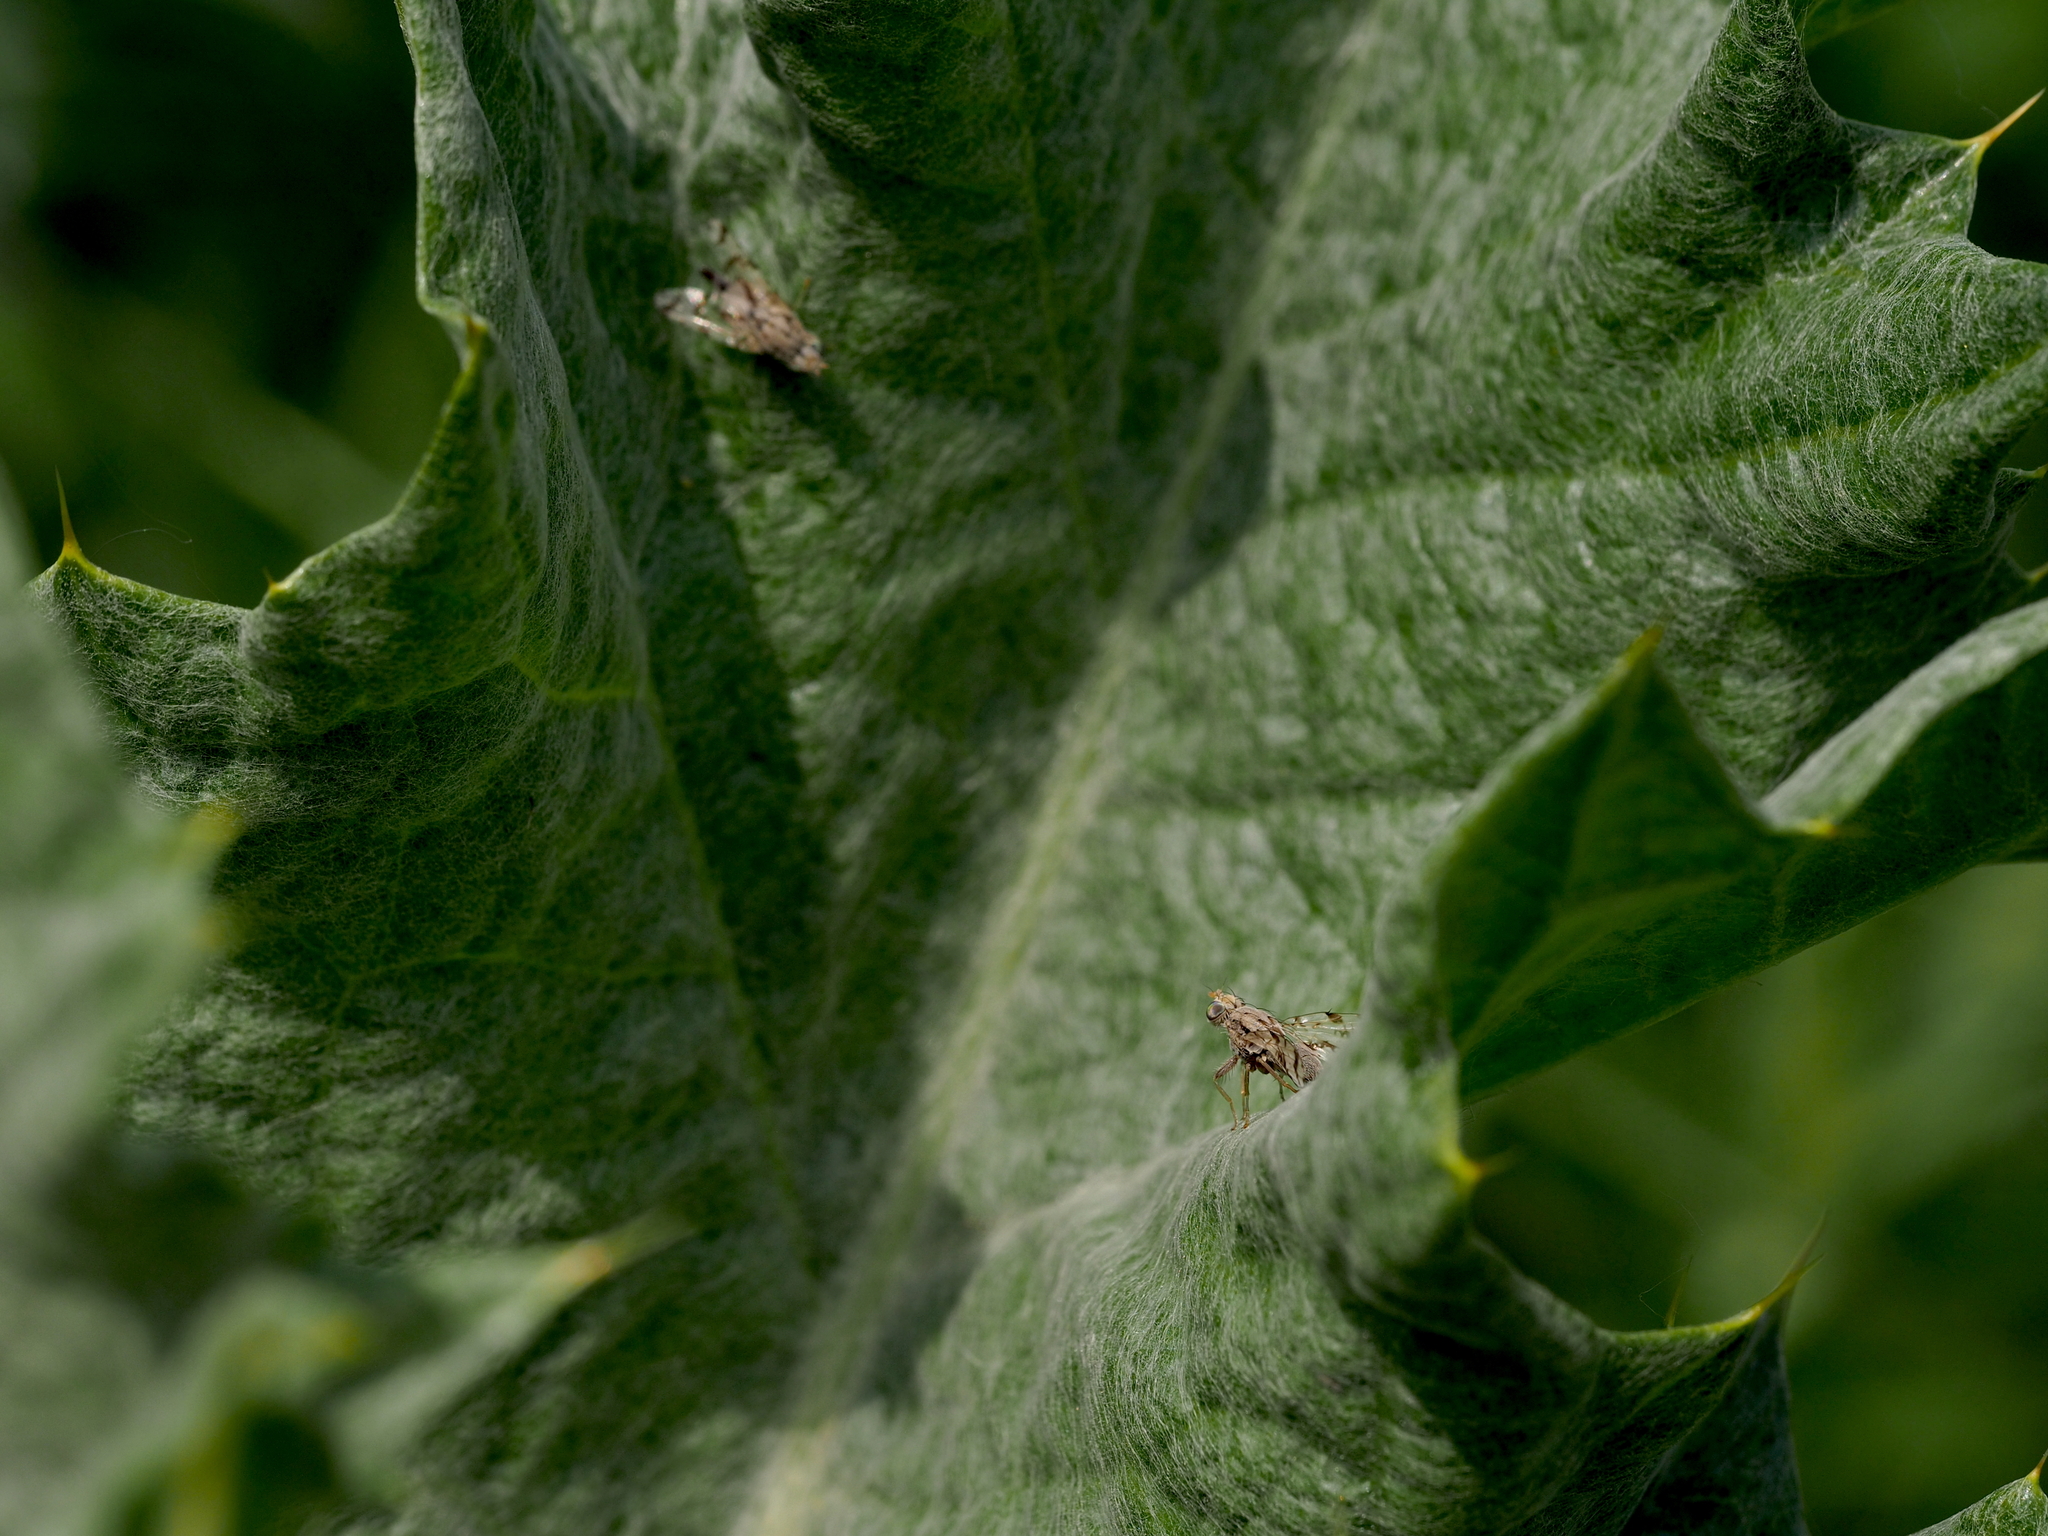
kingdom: Animalia
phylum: Arthropoda
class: Insecta
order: Diptera
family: Tephritidae
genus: Tephritis
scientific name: Tephritis postica
